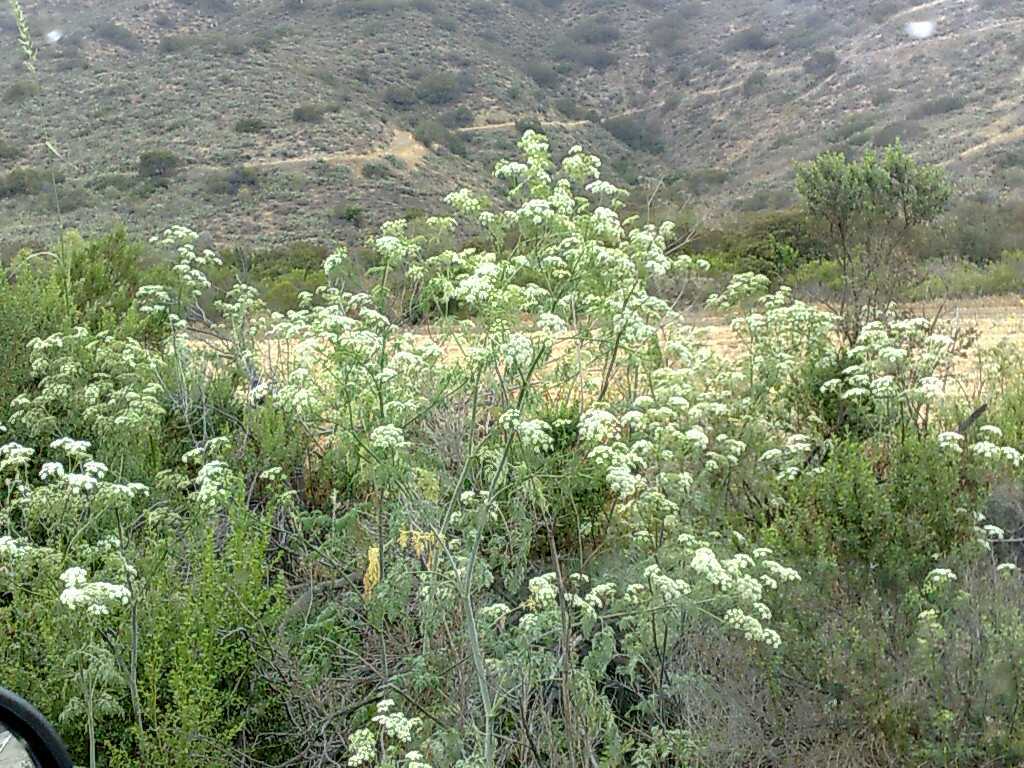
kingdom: Plantae
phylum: Tracheophyta
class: Magnoliopsida
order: Asterales
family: Asteraceae
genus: Baccharis
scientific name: Baccharis pilularis
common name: Coyotebrush
